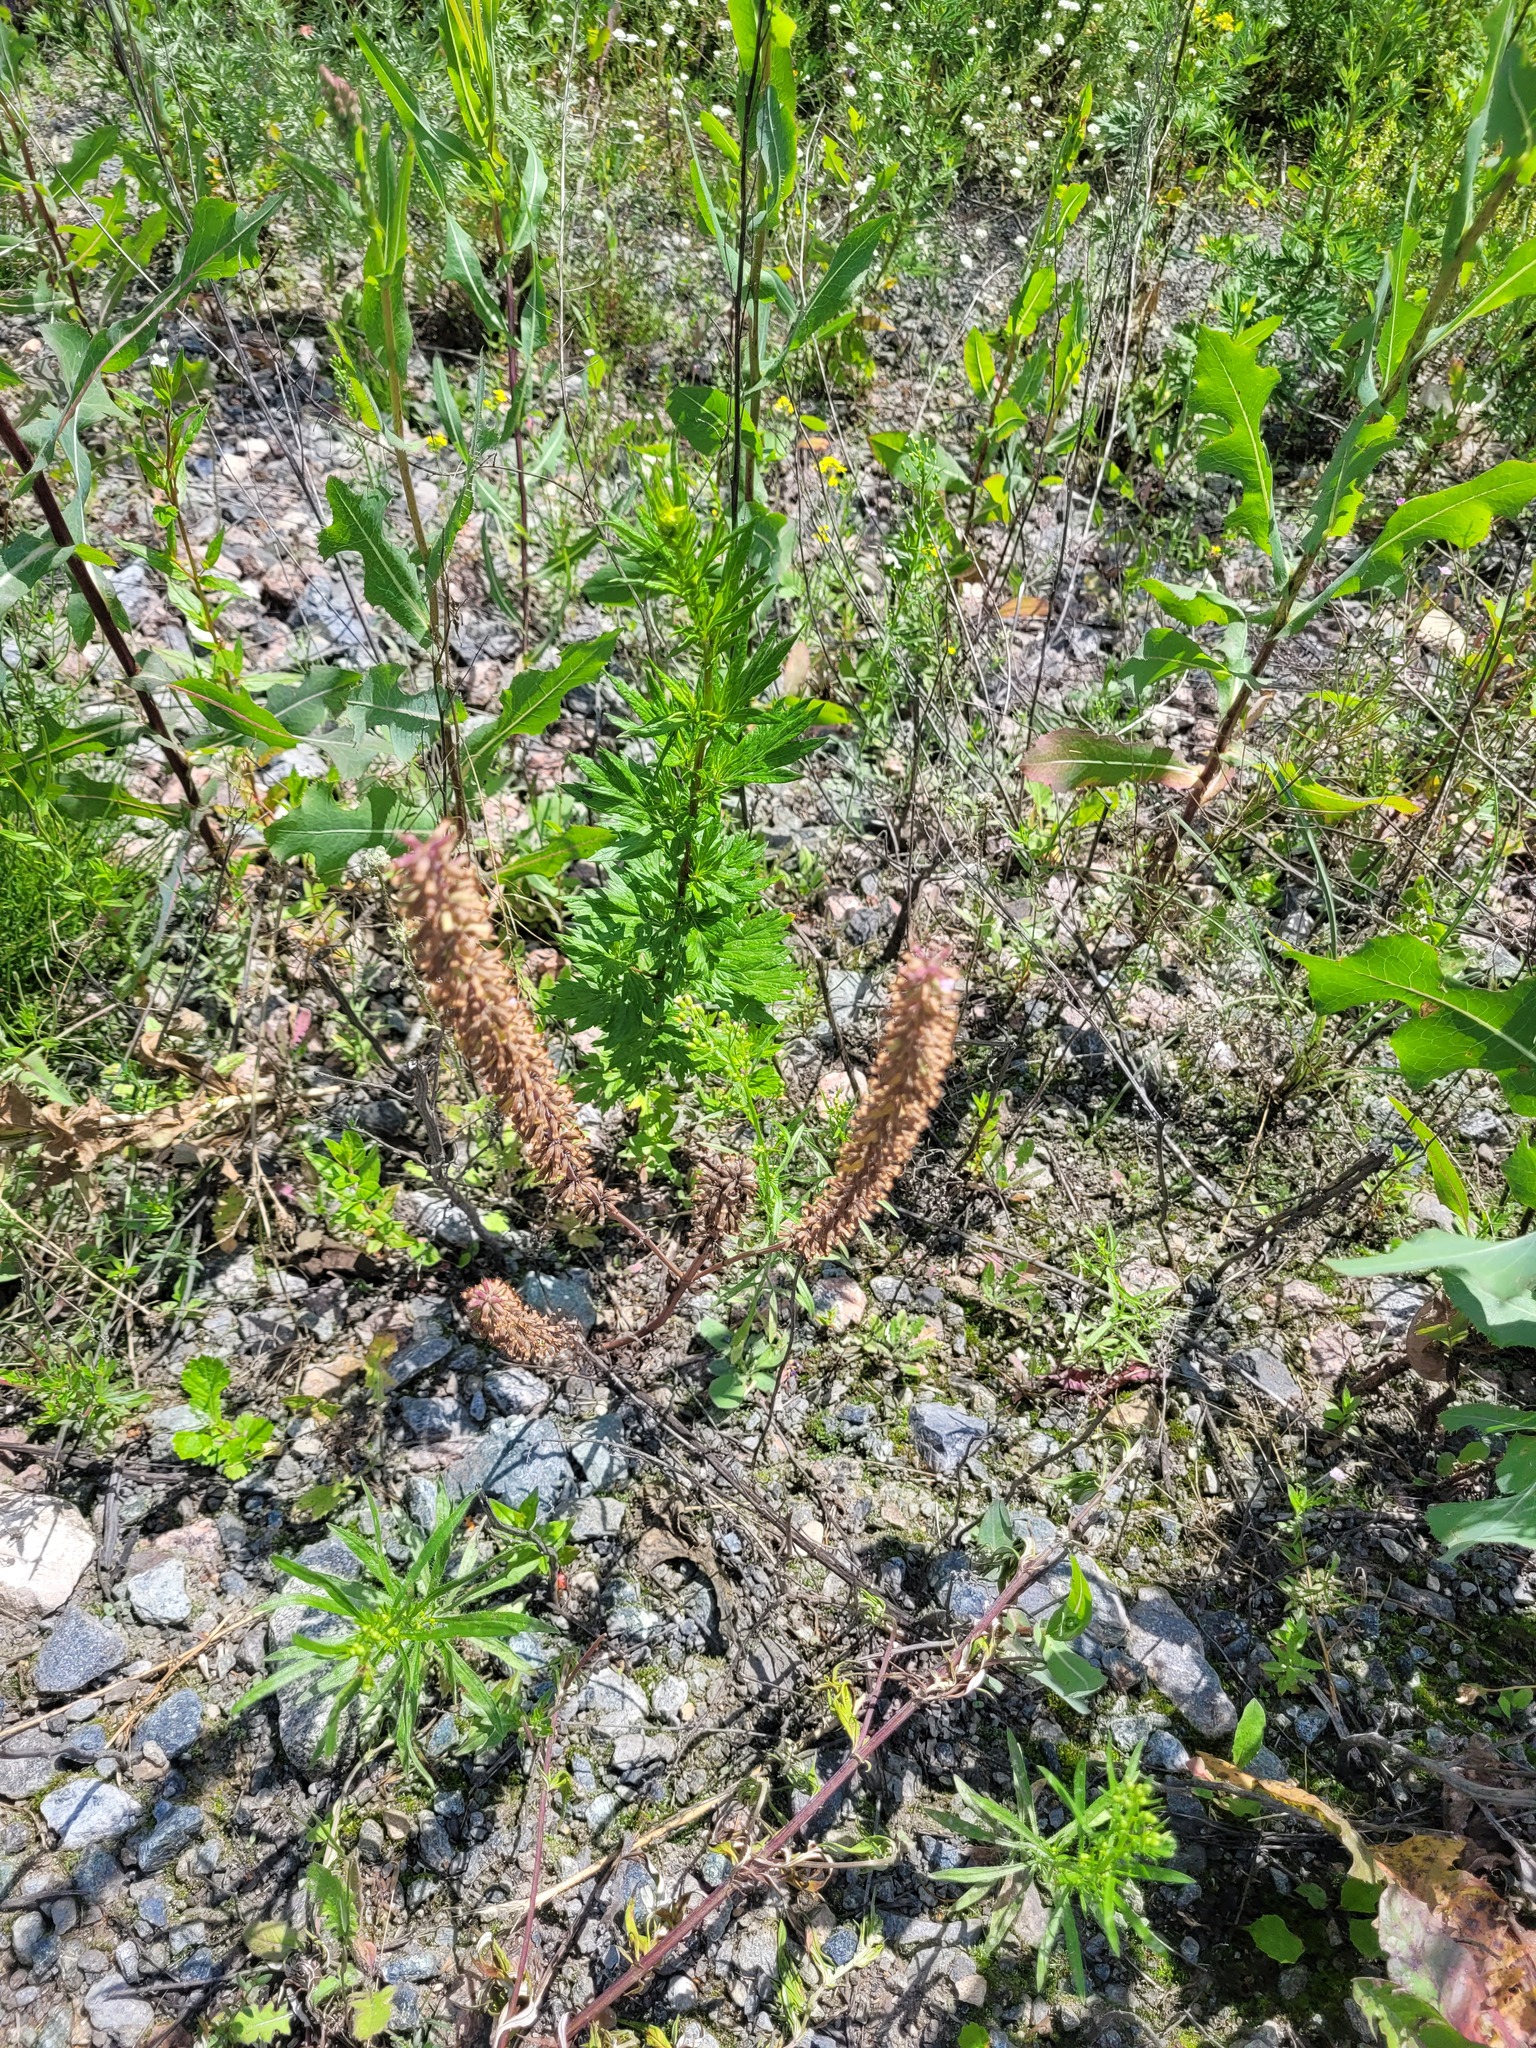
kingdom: Plantae
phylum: Tracheophyta
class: Magnoliopsida
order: Lamiales
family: Lamiaceae
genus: Dracocephalum
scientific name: Dracocephalum thymiflorum
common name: Thymeleaf dragonhead
